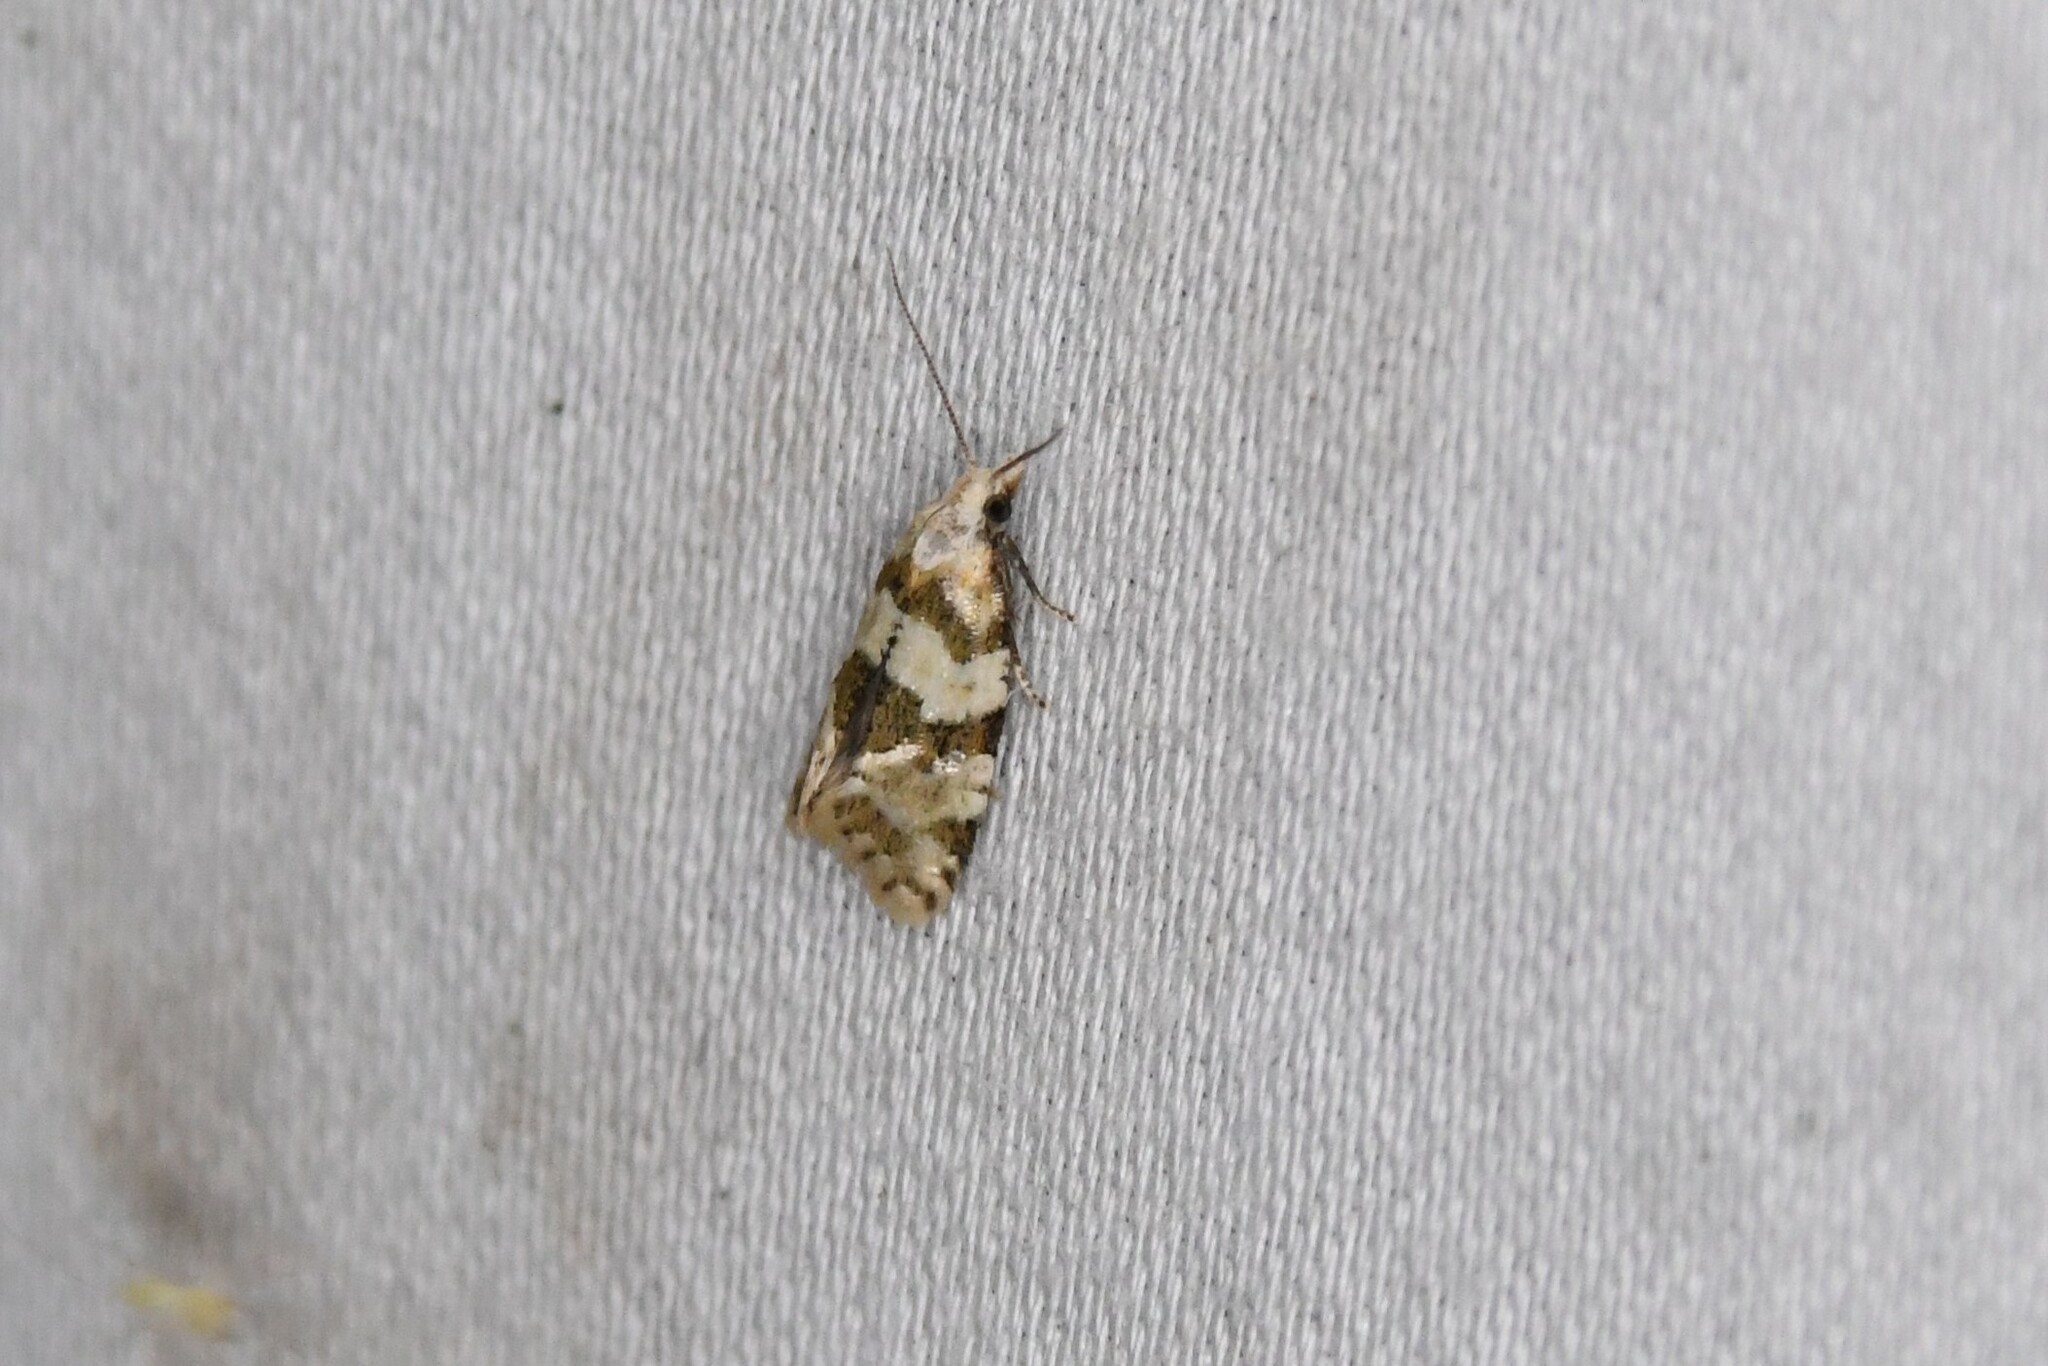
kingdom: Animalia
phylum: Arthropoda
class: Insecta
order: Lepidoptera
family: Tortricidae
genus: Aethes
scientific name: Aethes argentilimitana
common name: Silver-bordered aethes
